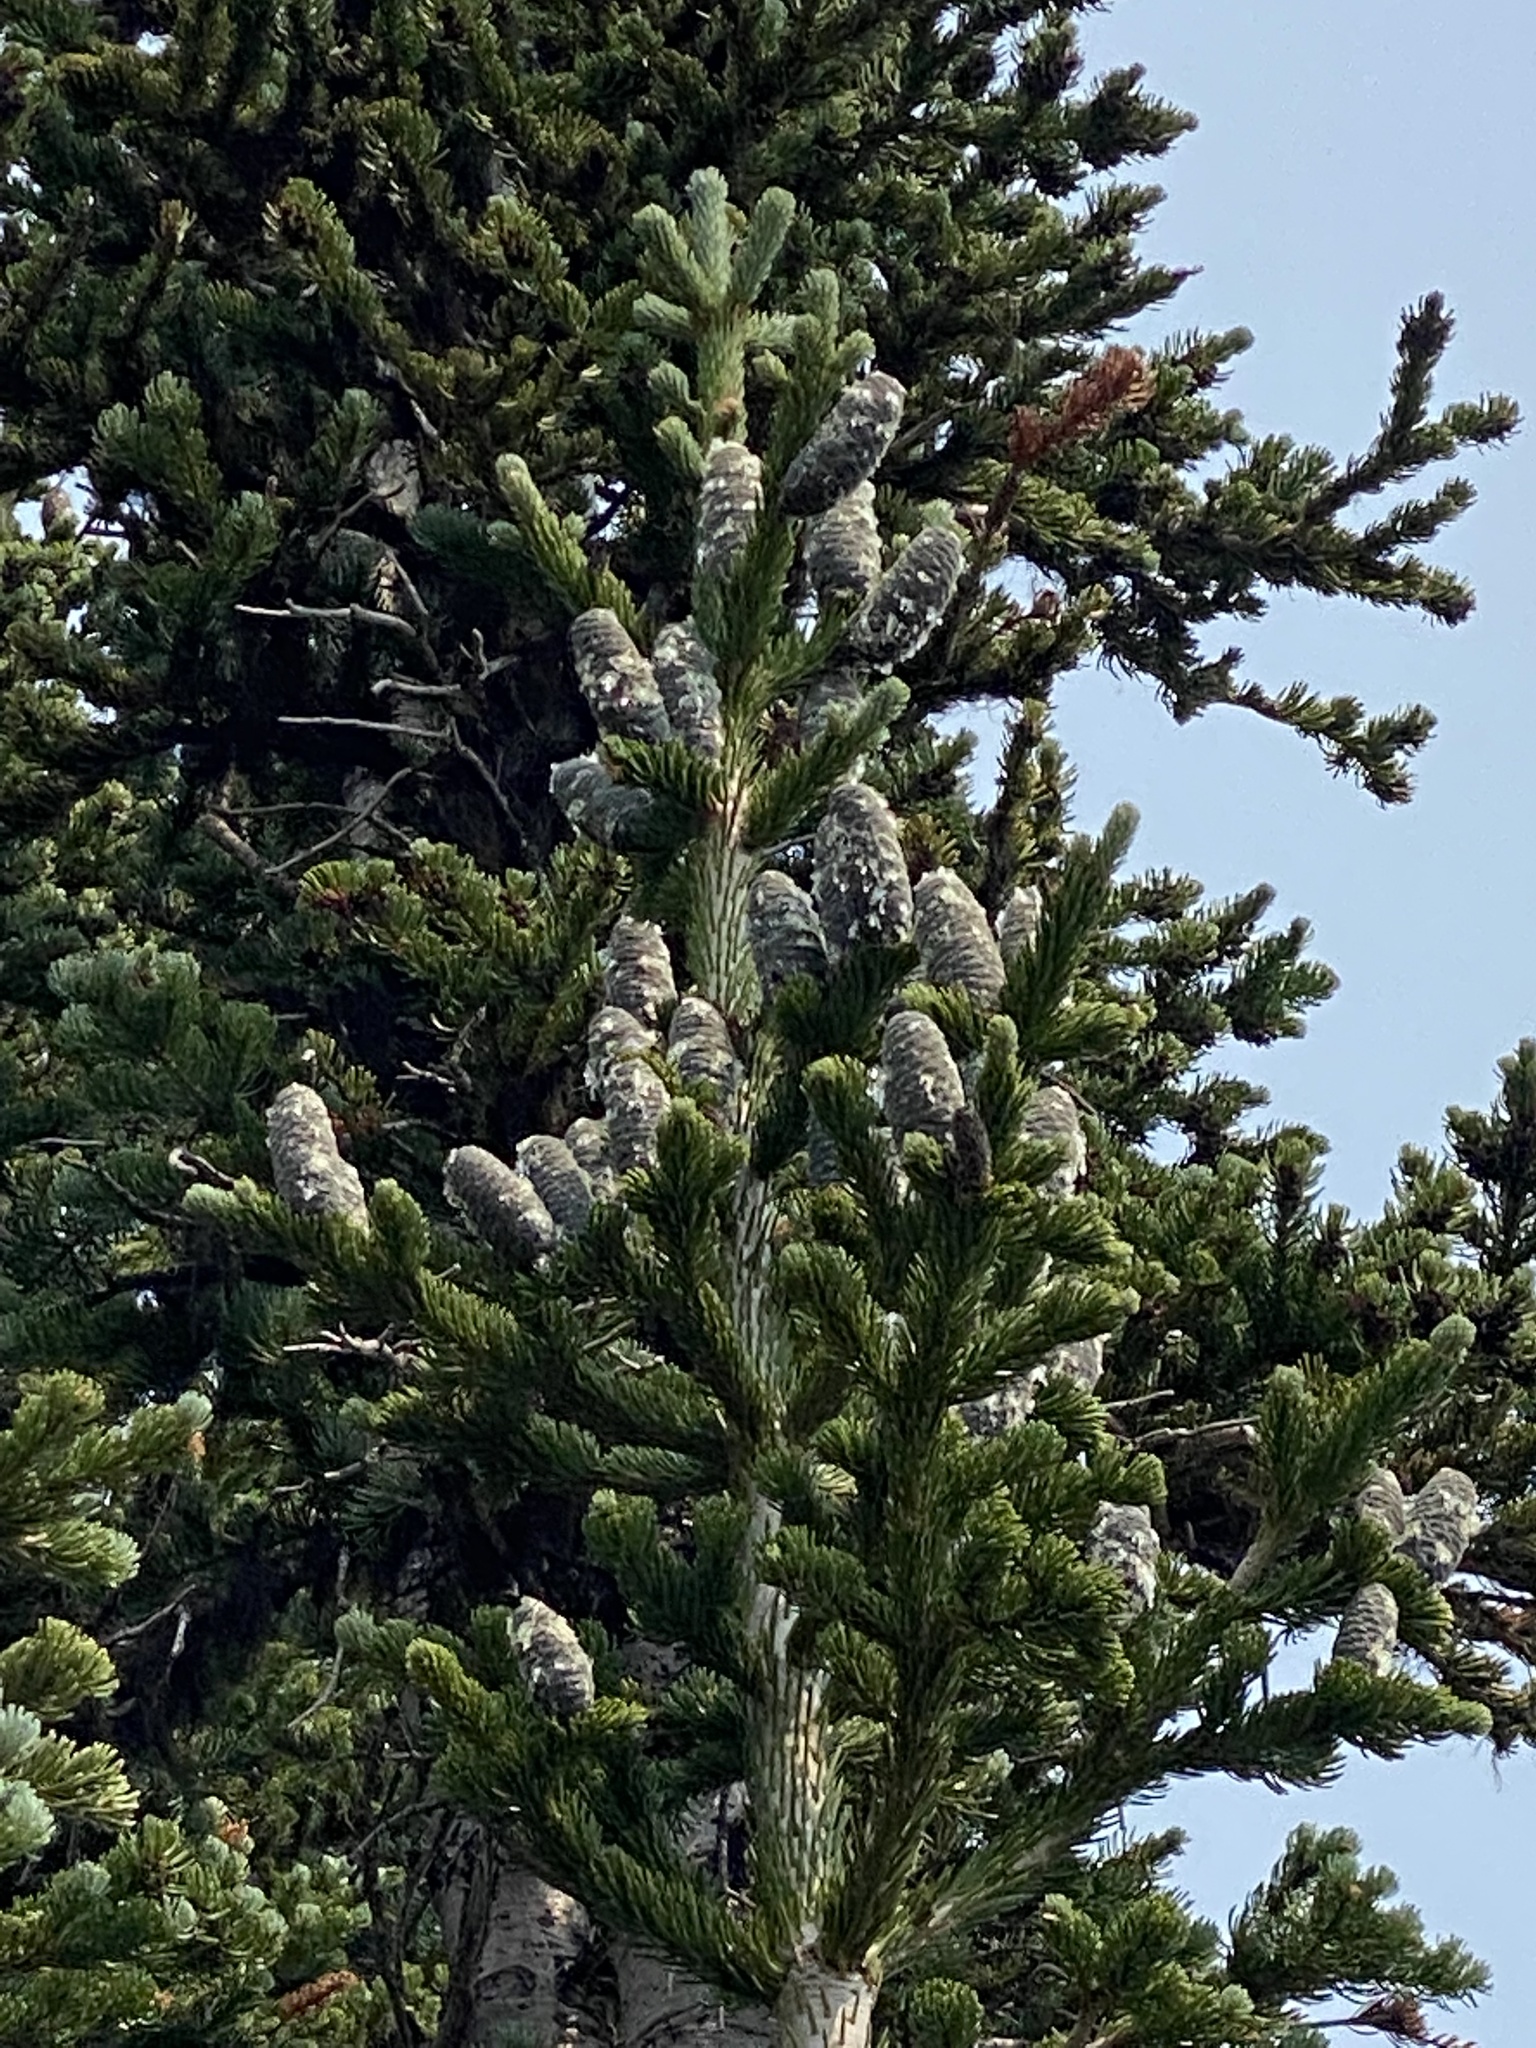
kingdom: Plantae
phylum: Tracheophyta
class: Pinopsida
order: Pinales
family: Pinaceae
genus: Abies
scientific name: Abies lasiocarpa
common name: Subalpine fir
